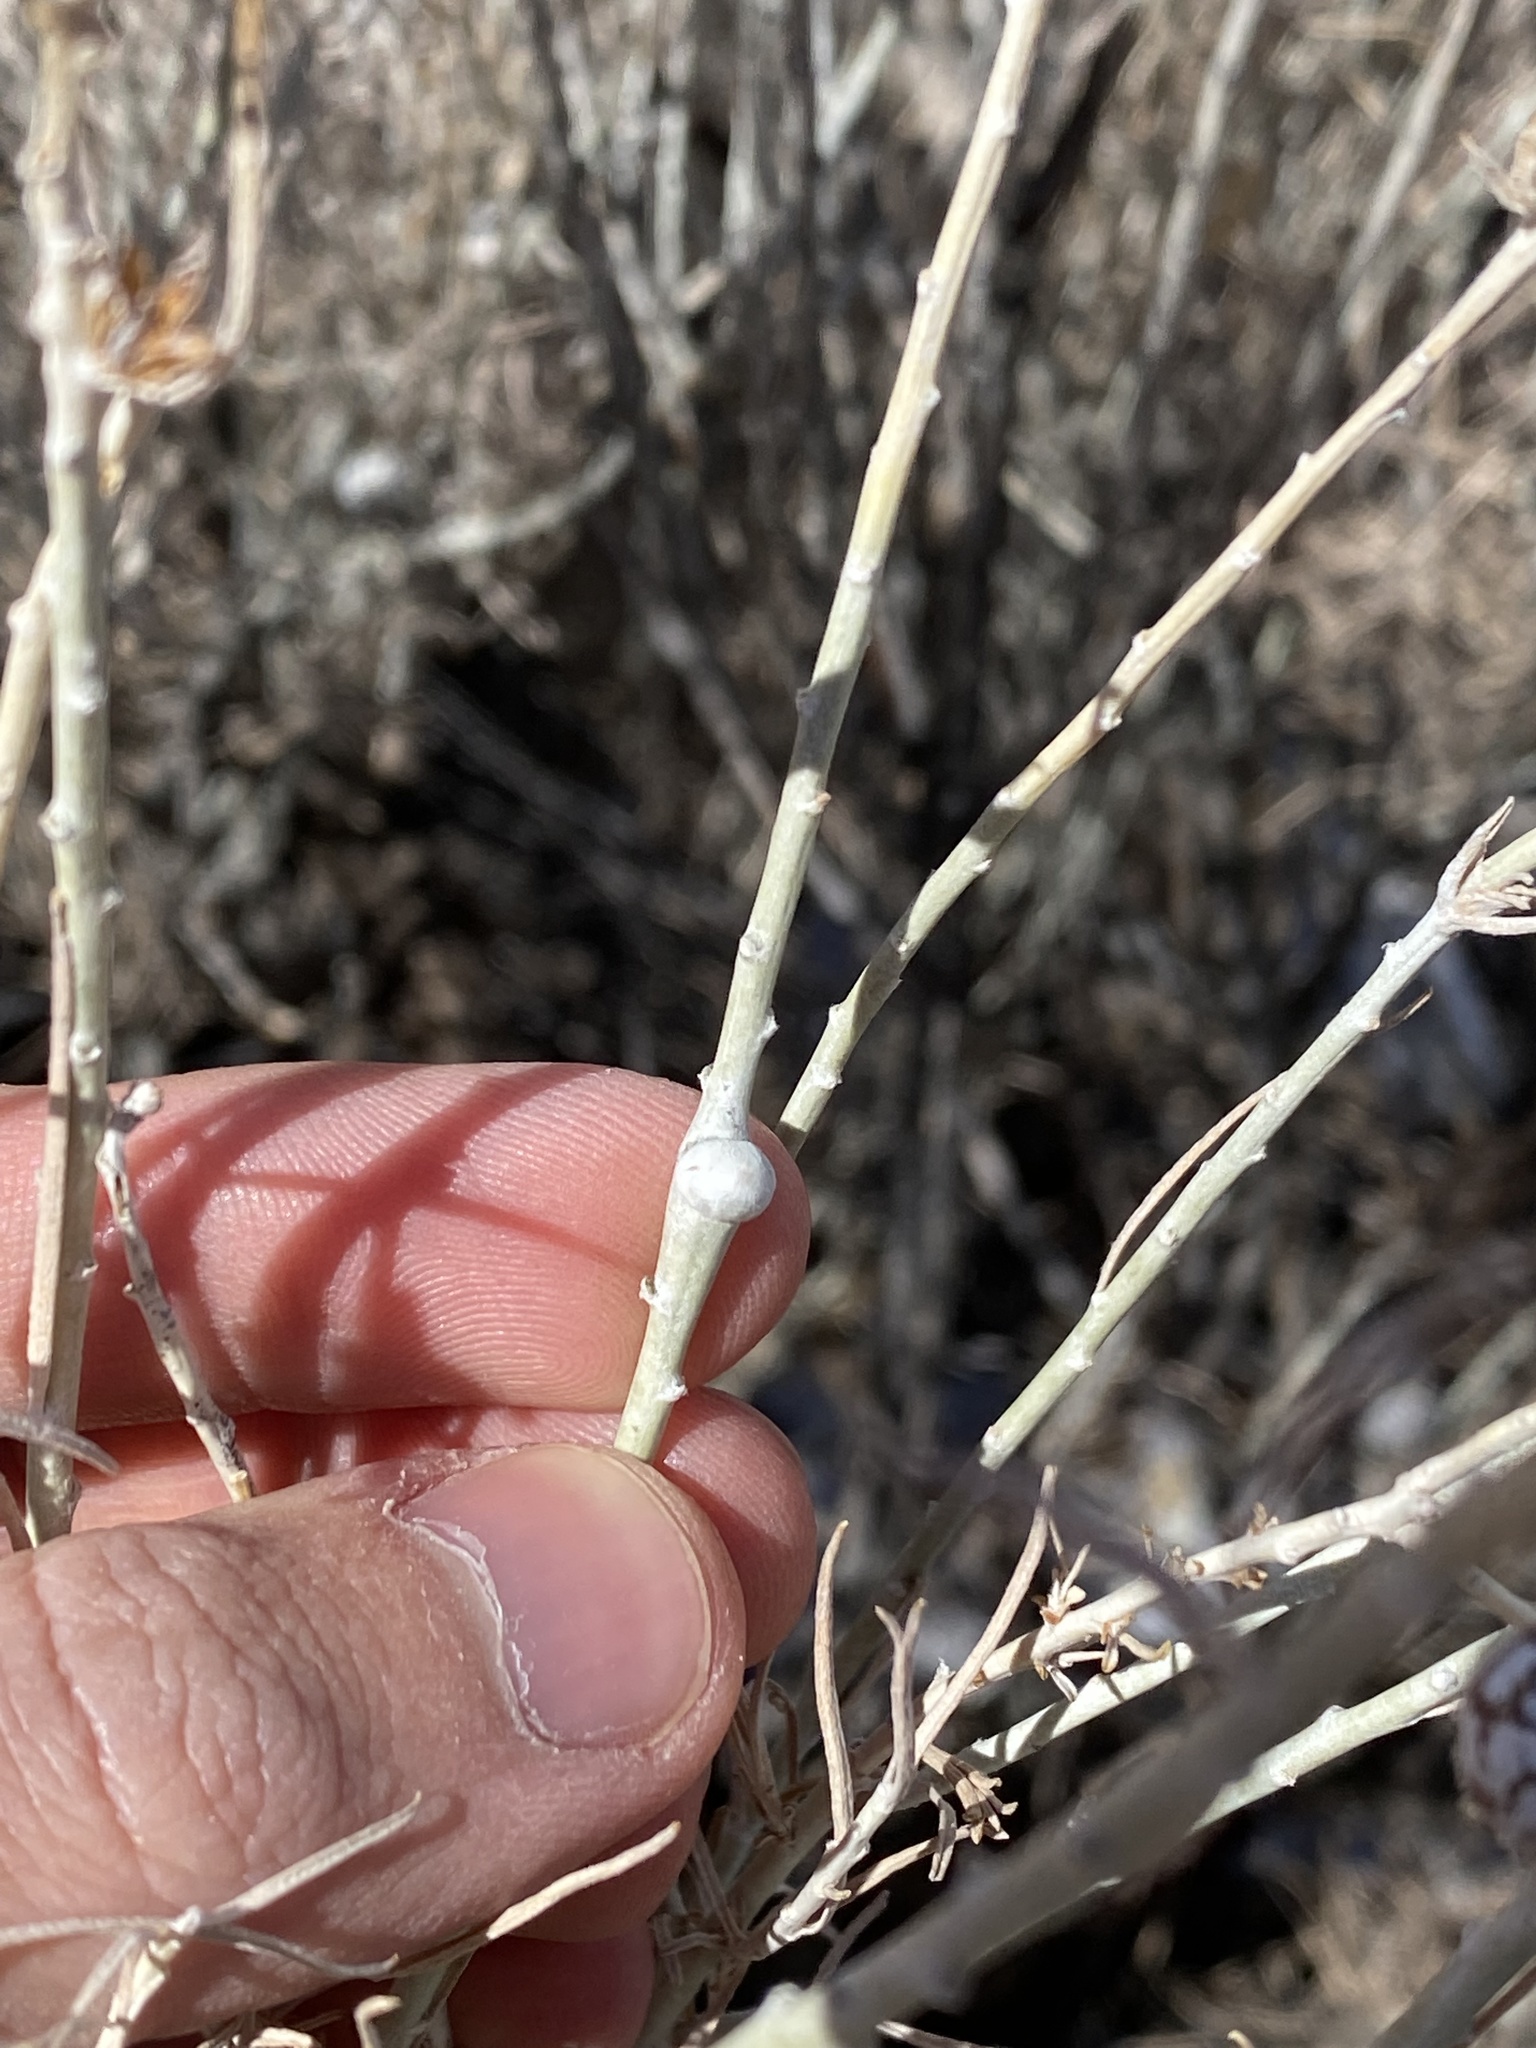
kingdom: Animalia
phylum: Arthropoda
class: Insecta
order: Diptera
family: Tephritidae
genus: Aciurina
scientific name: Aciurina trixa
